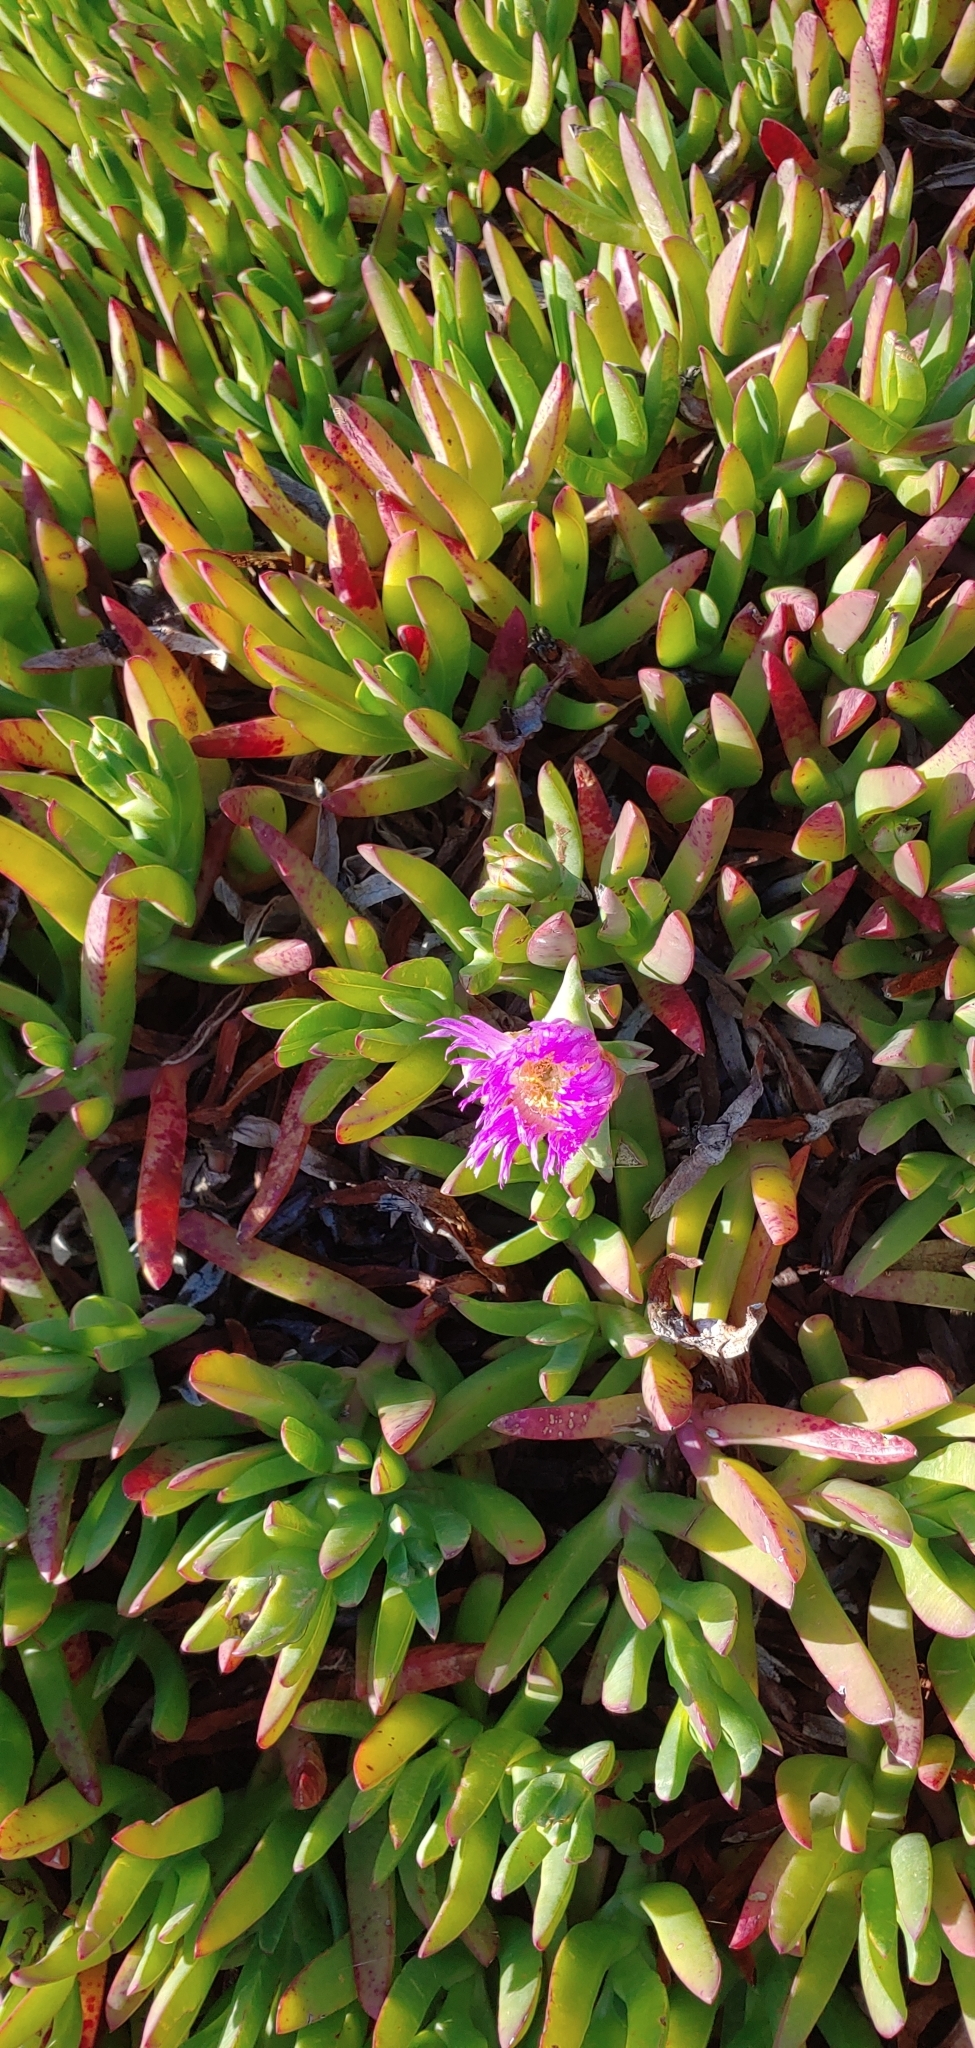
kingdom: Plantae
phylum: Tracheophyta
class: Magnoliopsida
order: Caryophyllales
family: Aizoaceae
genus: Carpobrotus
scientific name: Carpobrotus chilensis
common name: Sea fig
